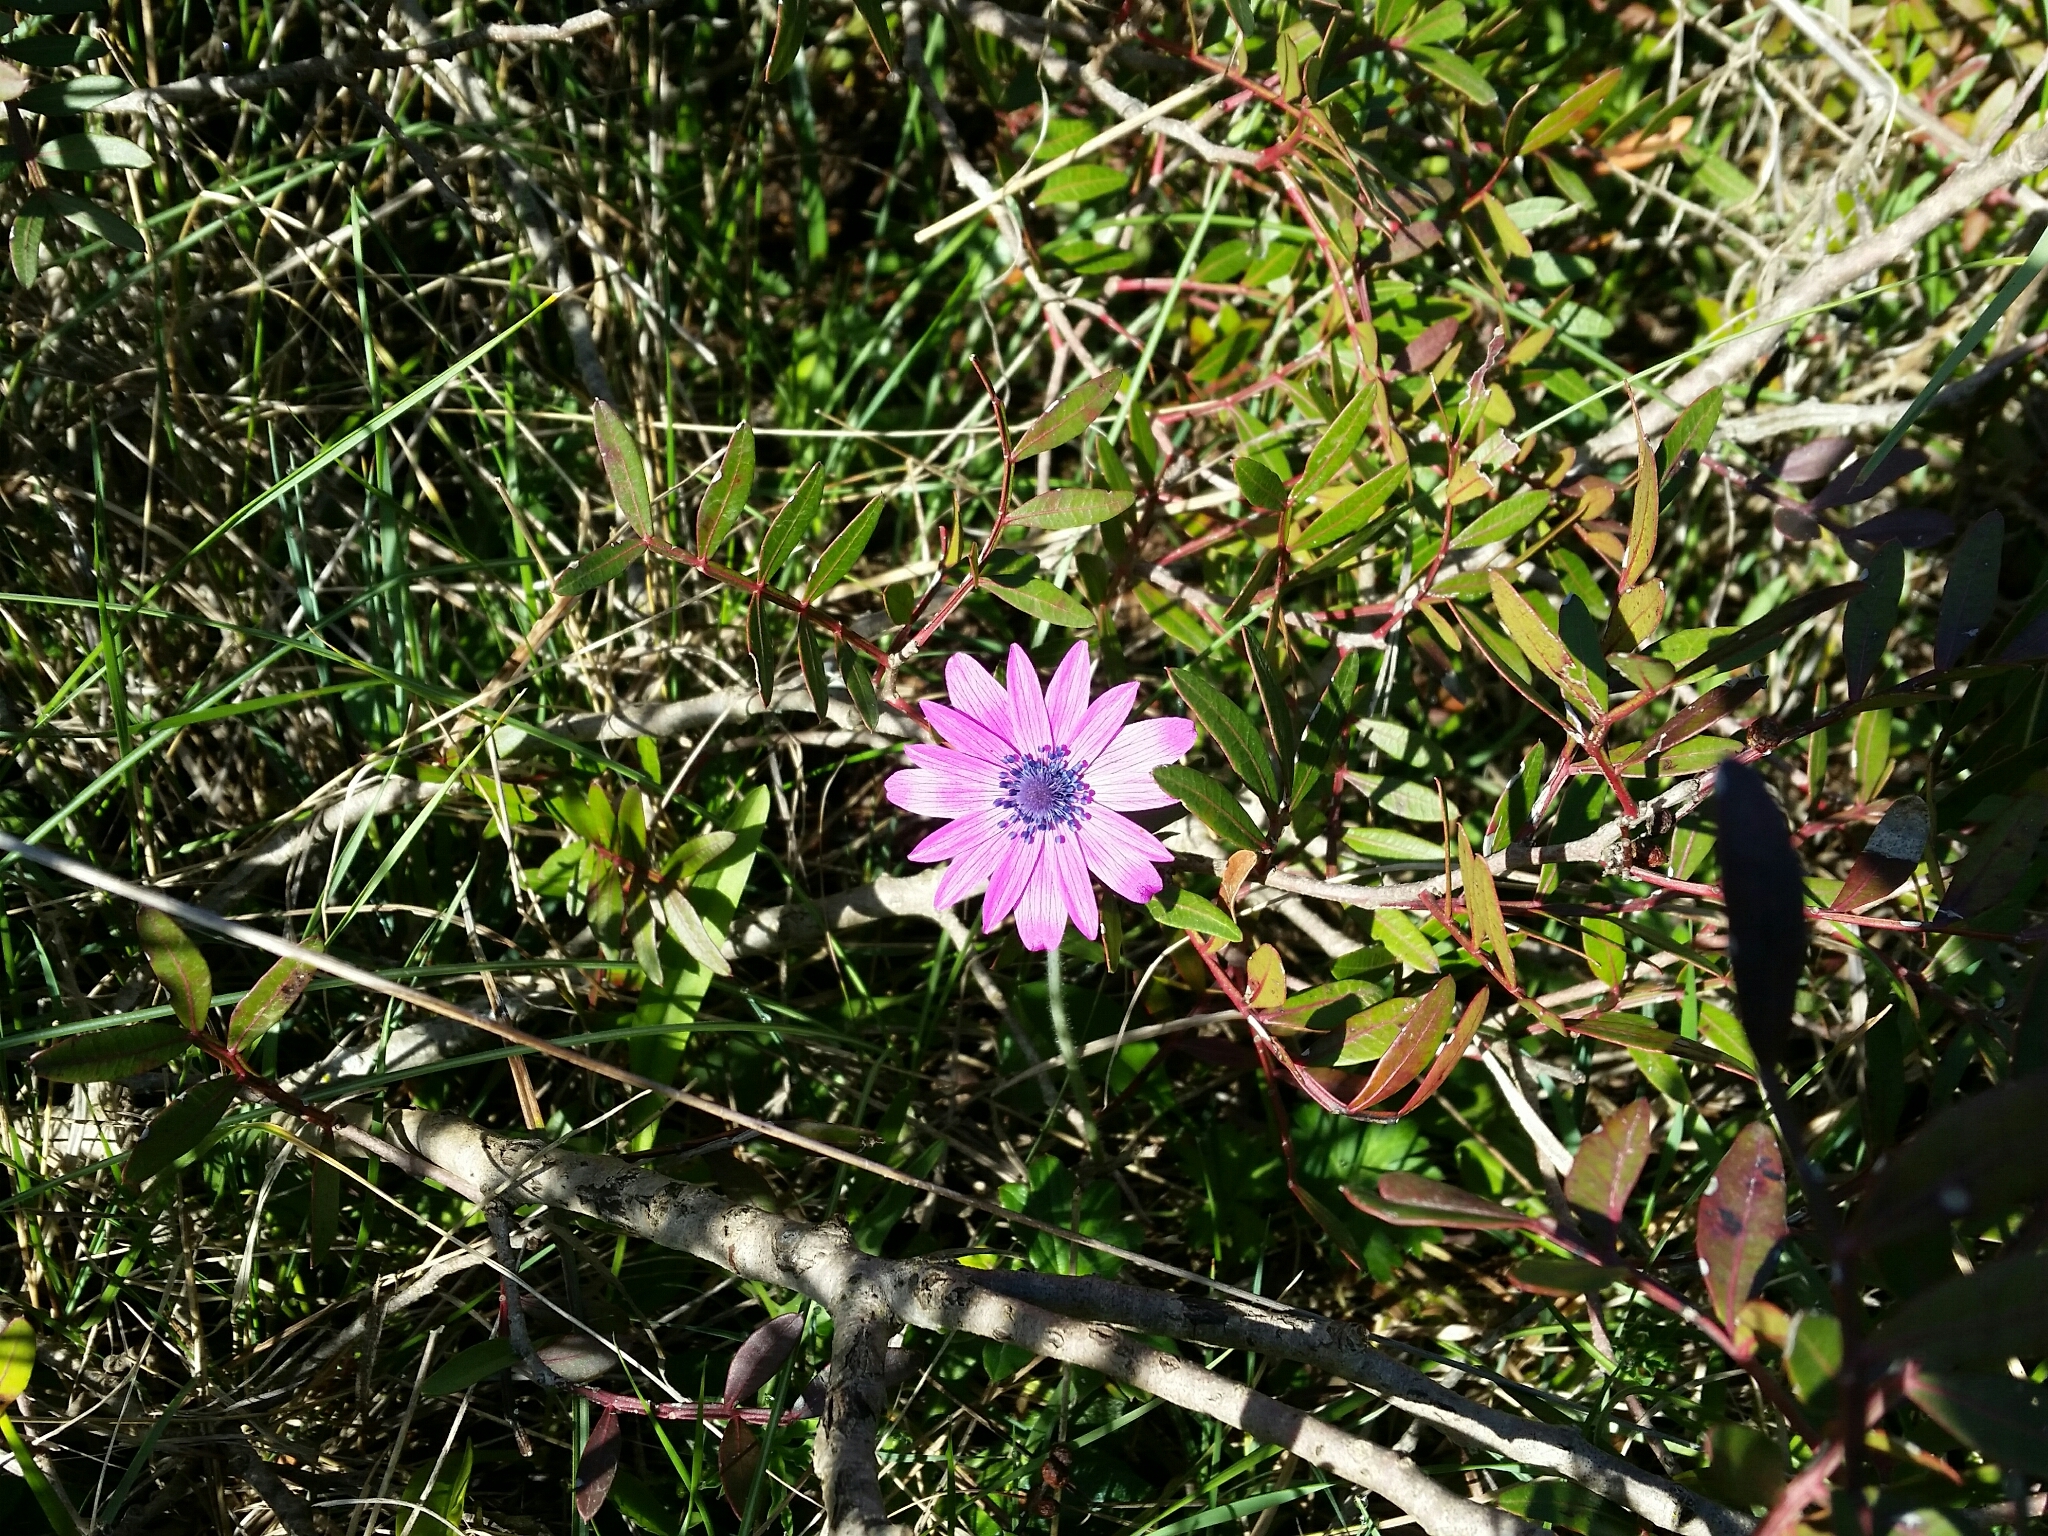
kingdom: Plantae
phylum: Tracheophyta
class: Magnoliopsida
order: Ranunculales
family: Ranunculaceae
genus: Anemone
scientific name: Anemone hortensis
